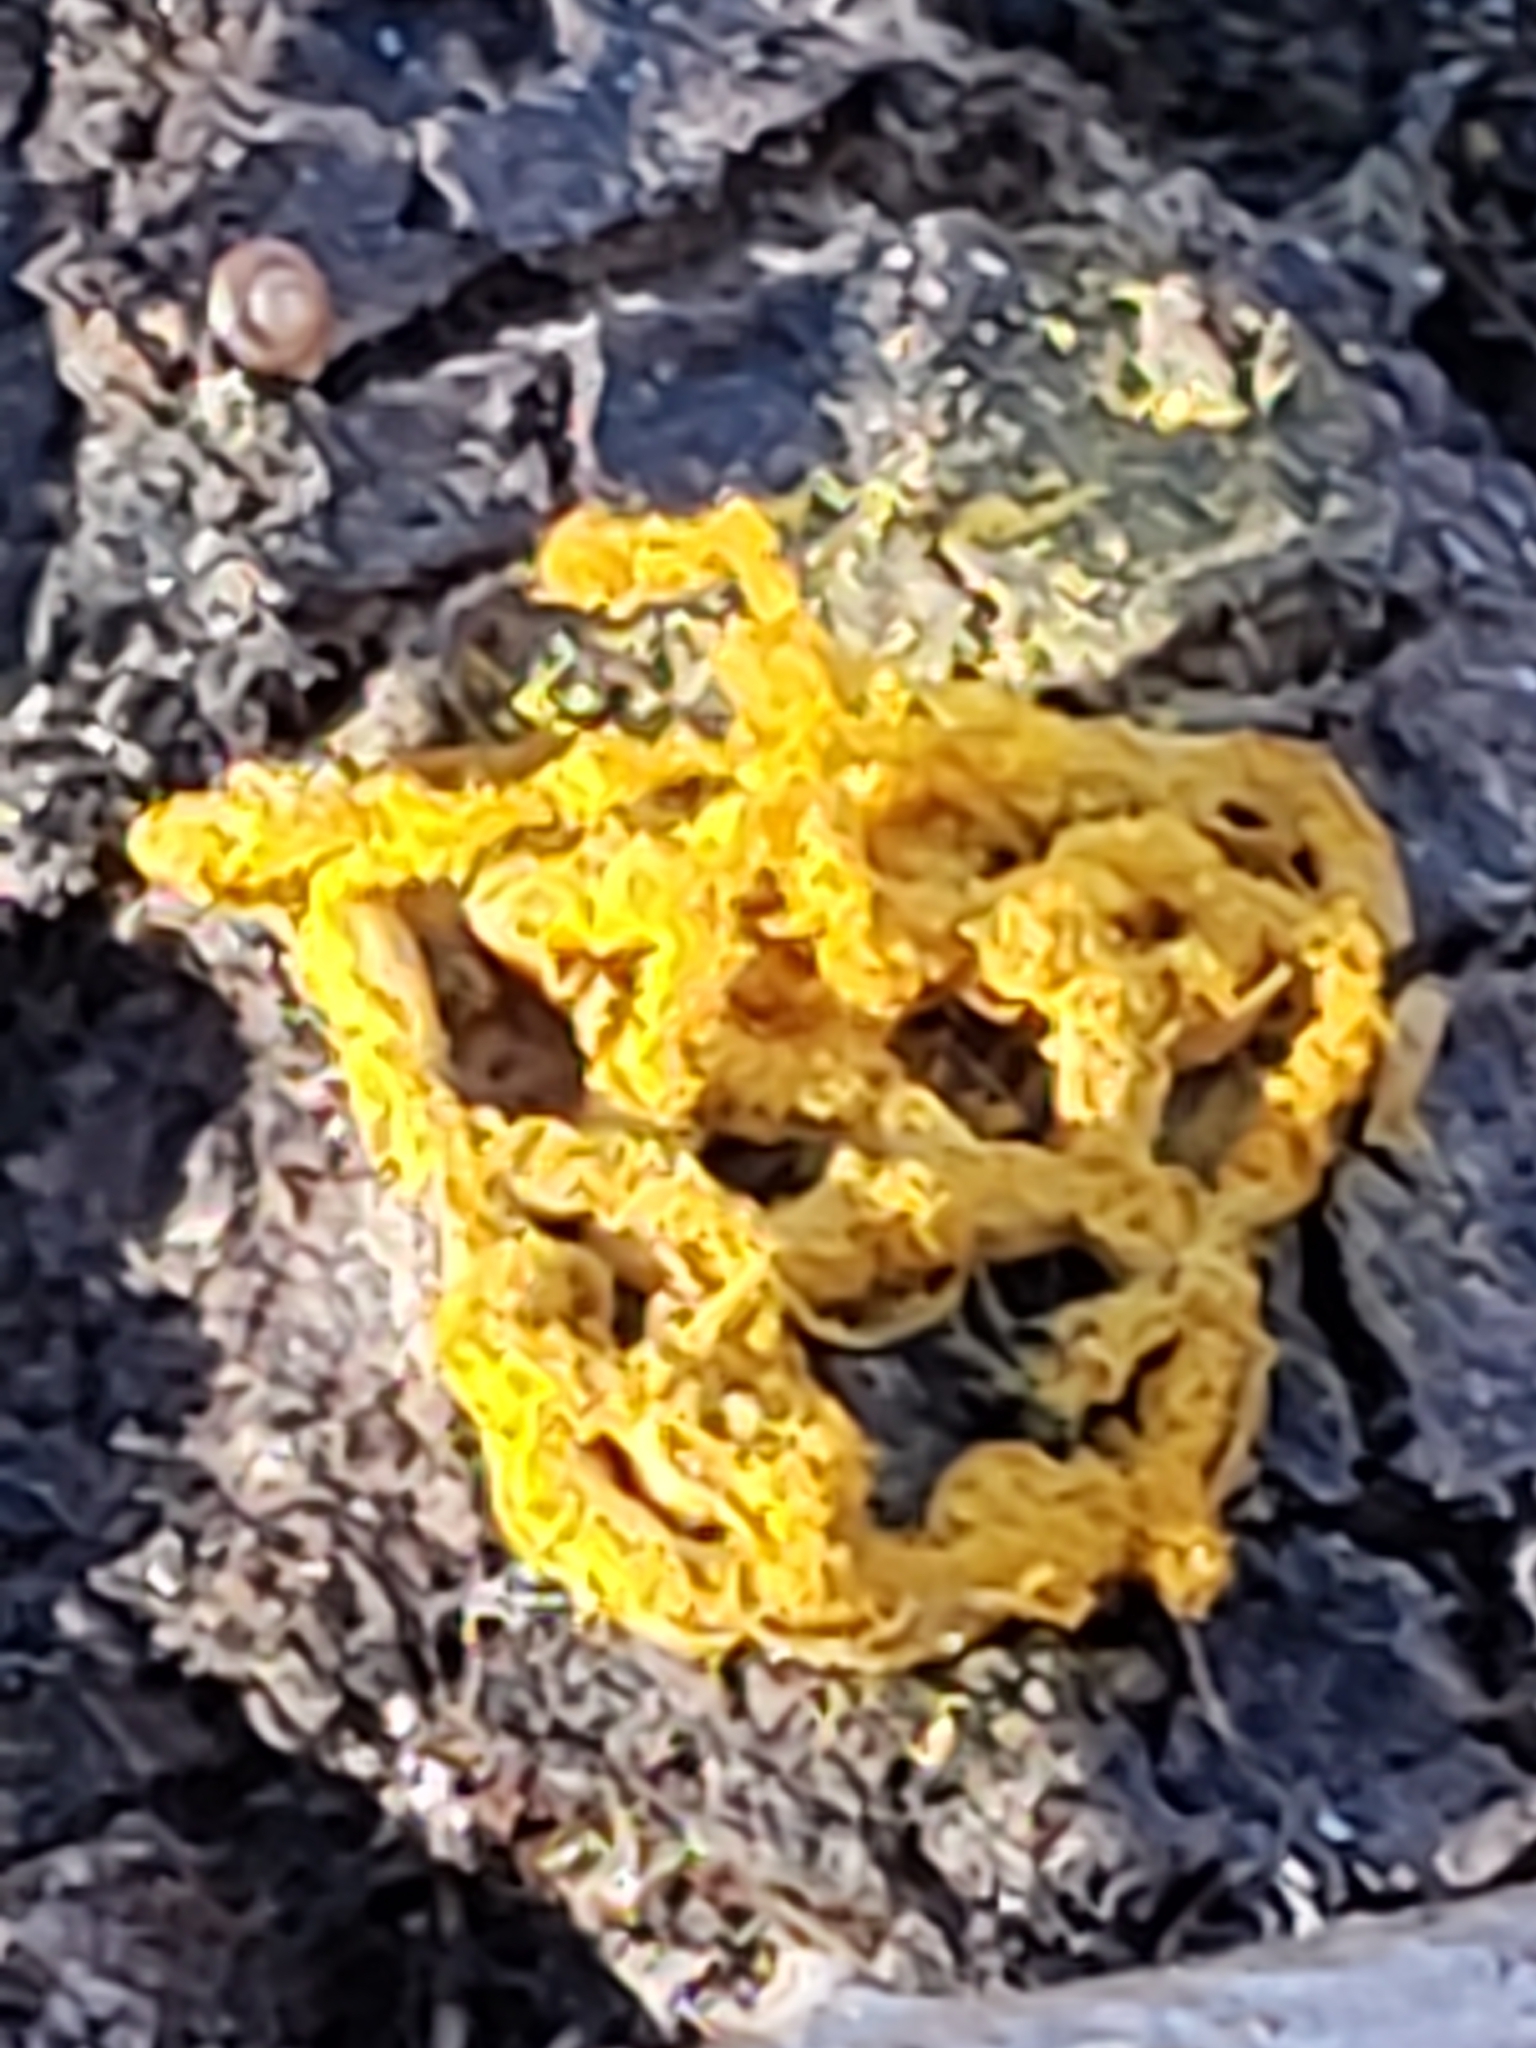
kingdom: Protozoa
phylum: Mycetozoa
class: Myxomycetes
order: Trichiales
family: Arcyriaceae
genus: Hemitrichia
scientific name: Hemitrichia serpula
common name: Pretzel slime mold
